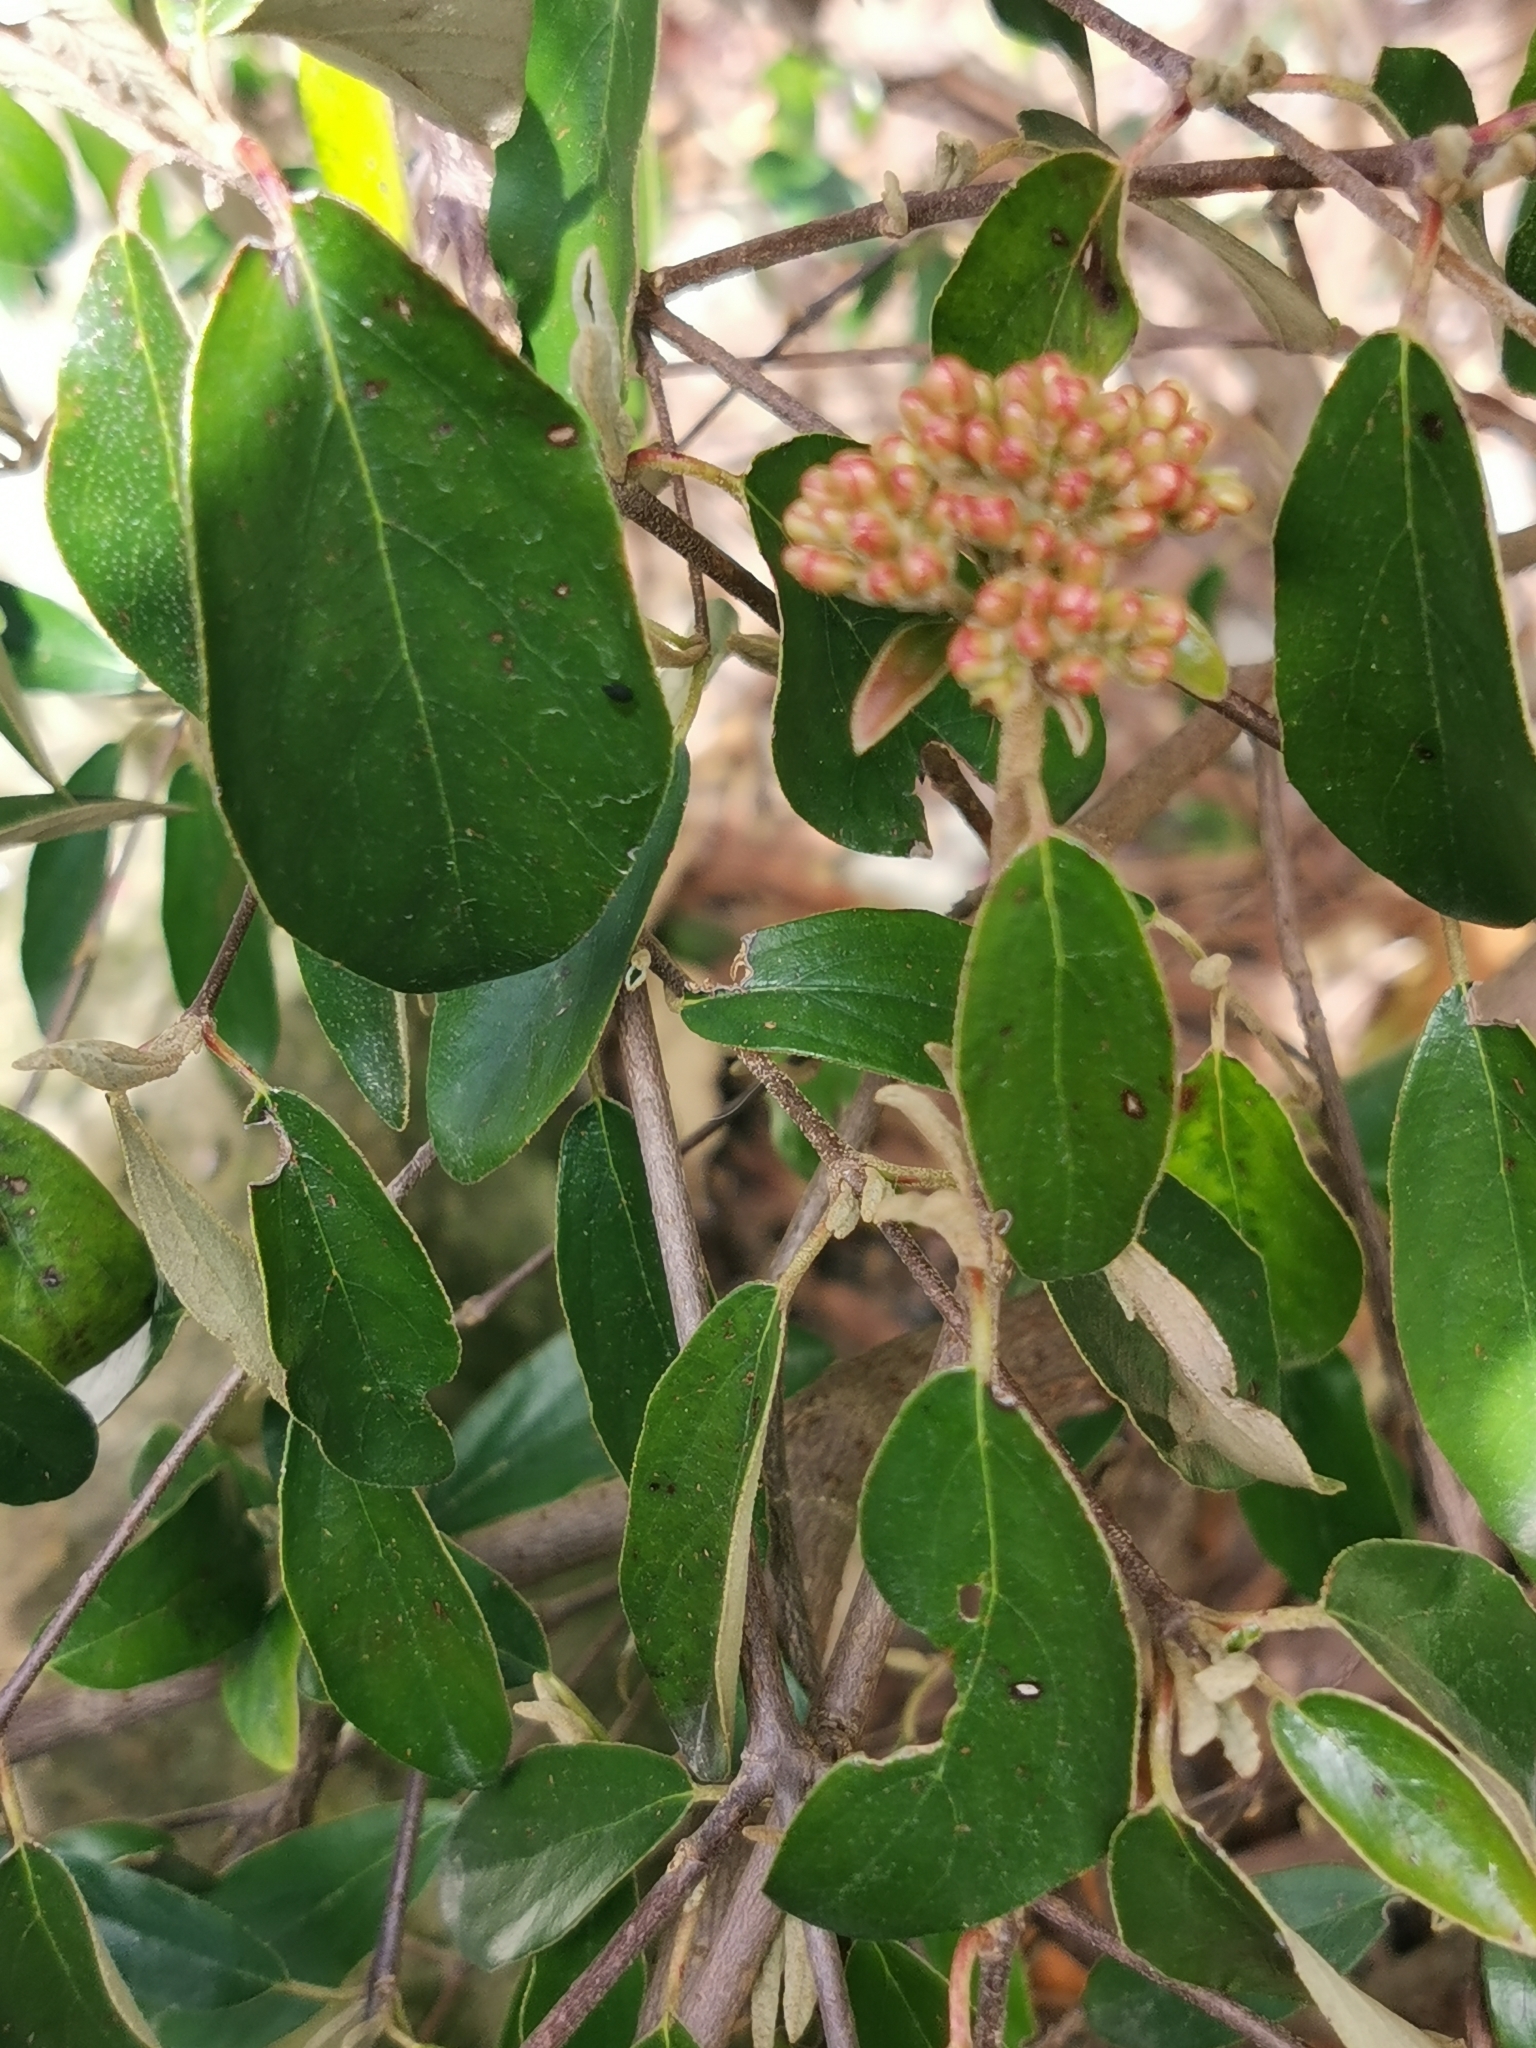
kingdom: Plantae
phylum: Tracheophyta
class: Magnoliopsida
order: Dipsacales
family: Viburnaceae
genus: Viburnum
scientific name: Viburnum tinus
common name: Laurustinus
